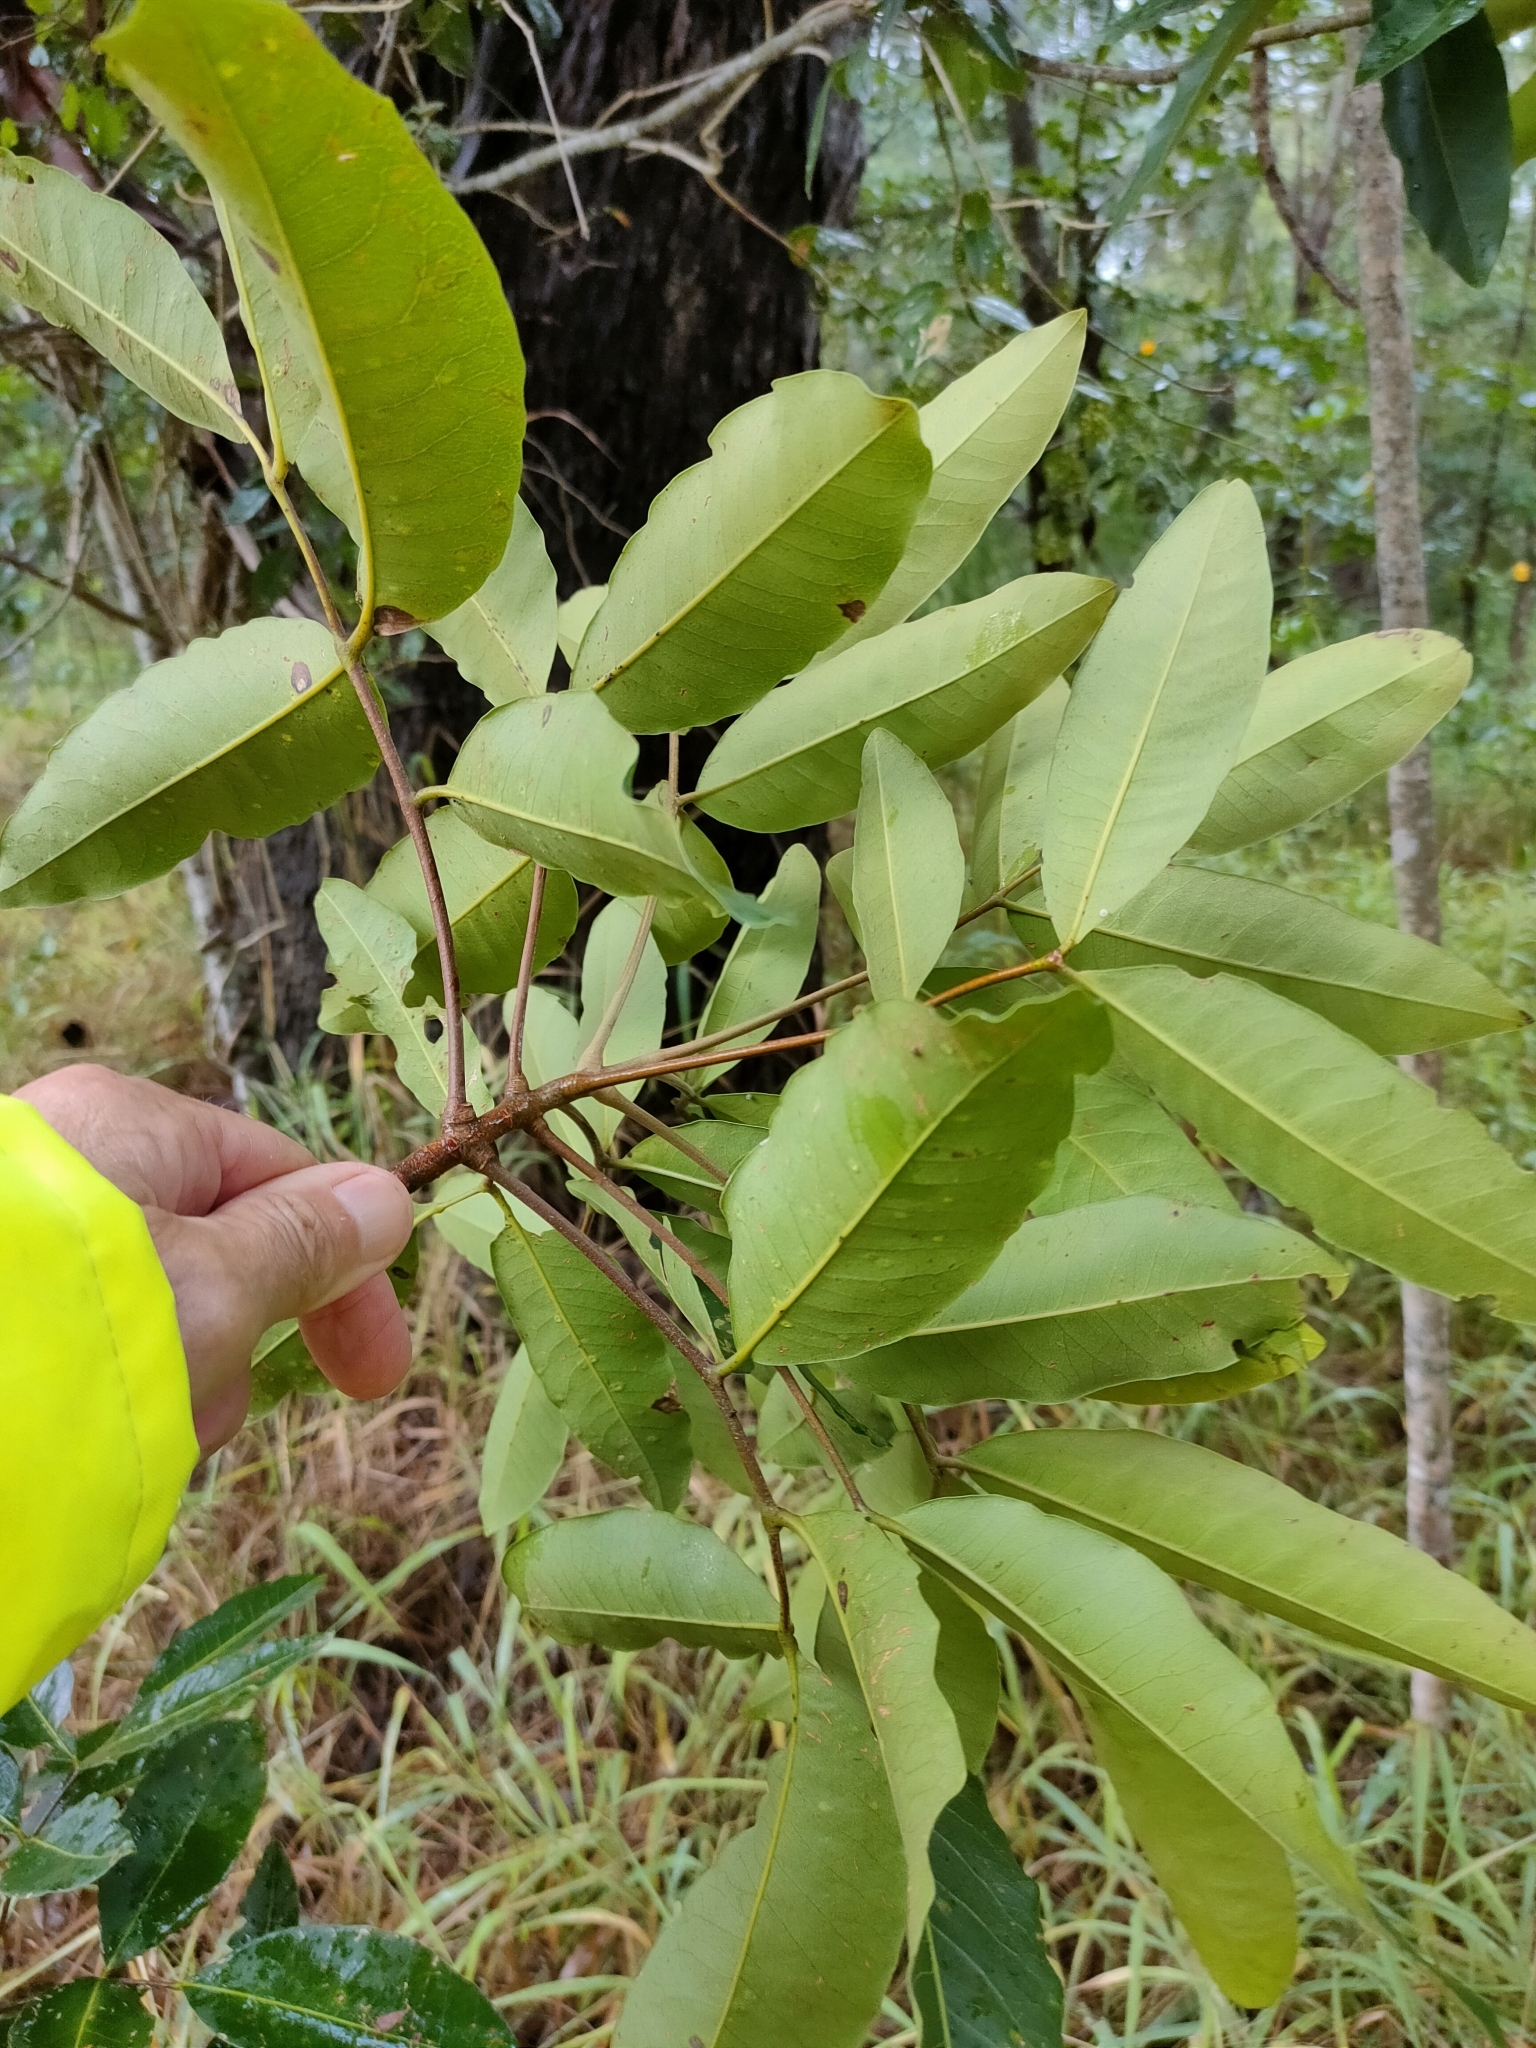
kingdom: Plantae
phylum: Tracheophyta
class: Magnoliopsida
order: Sapindales
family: Rutaceae
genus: Flindersia
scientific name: Flindersia bennettii
